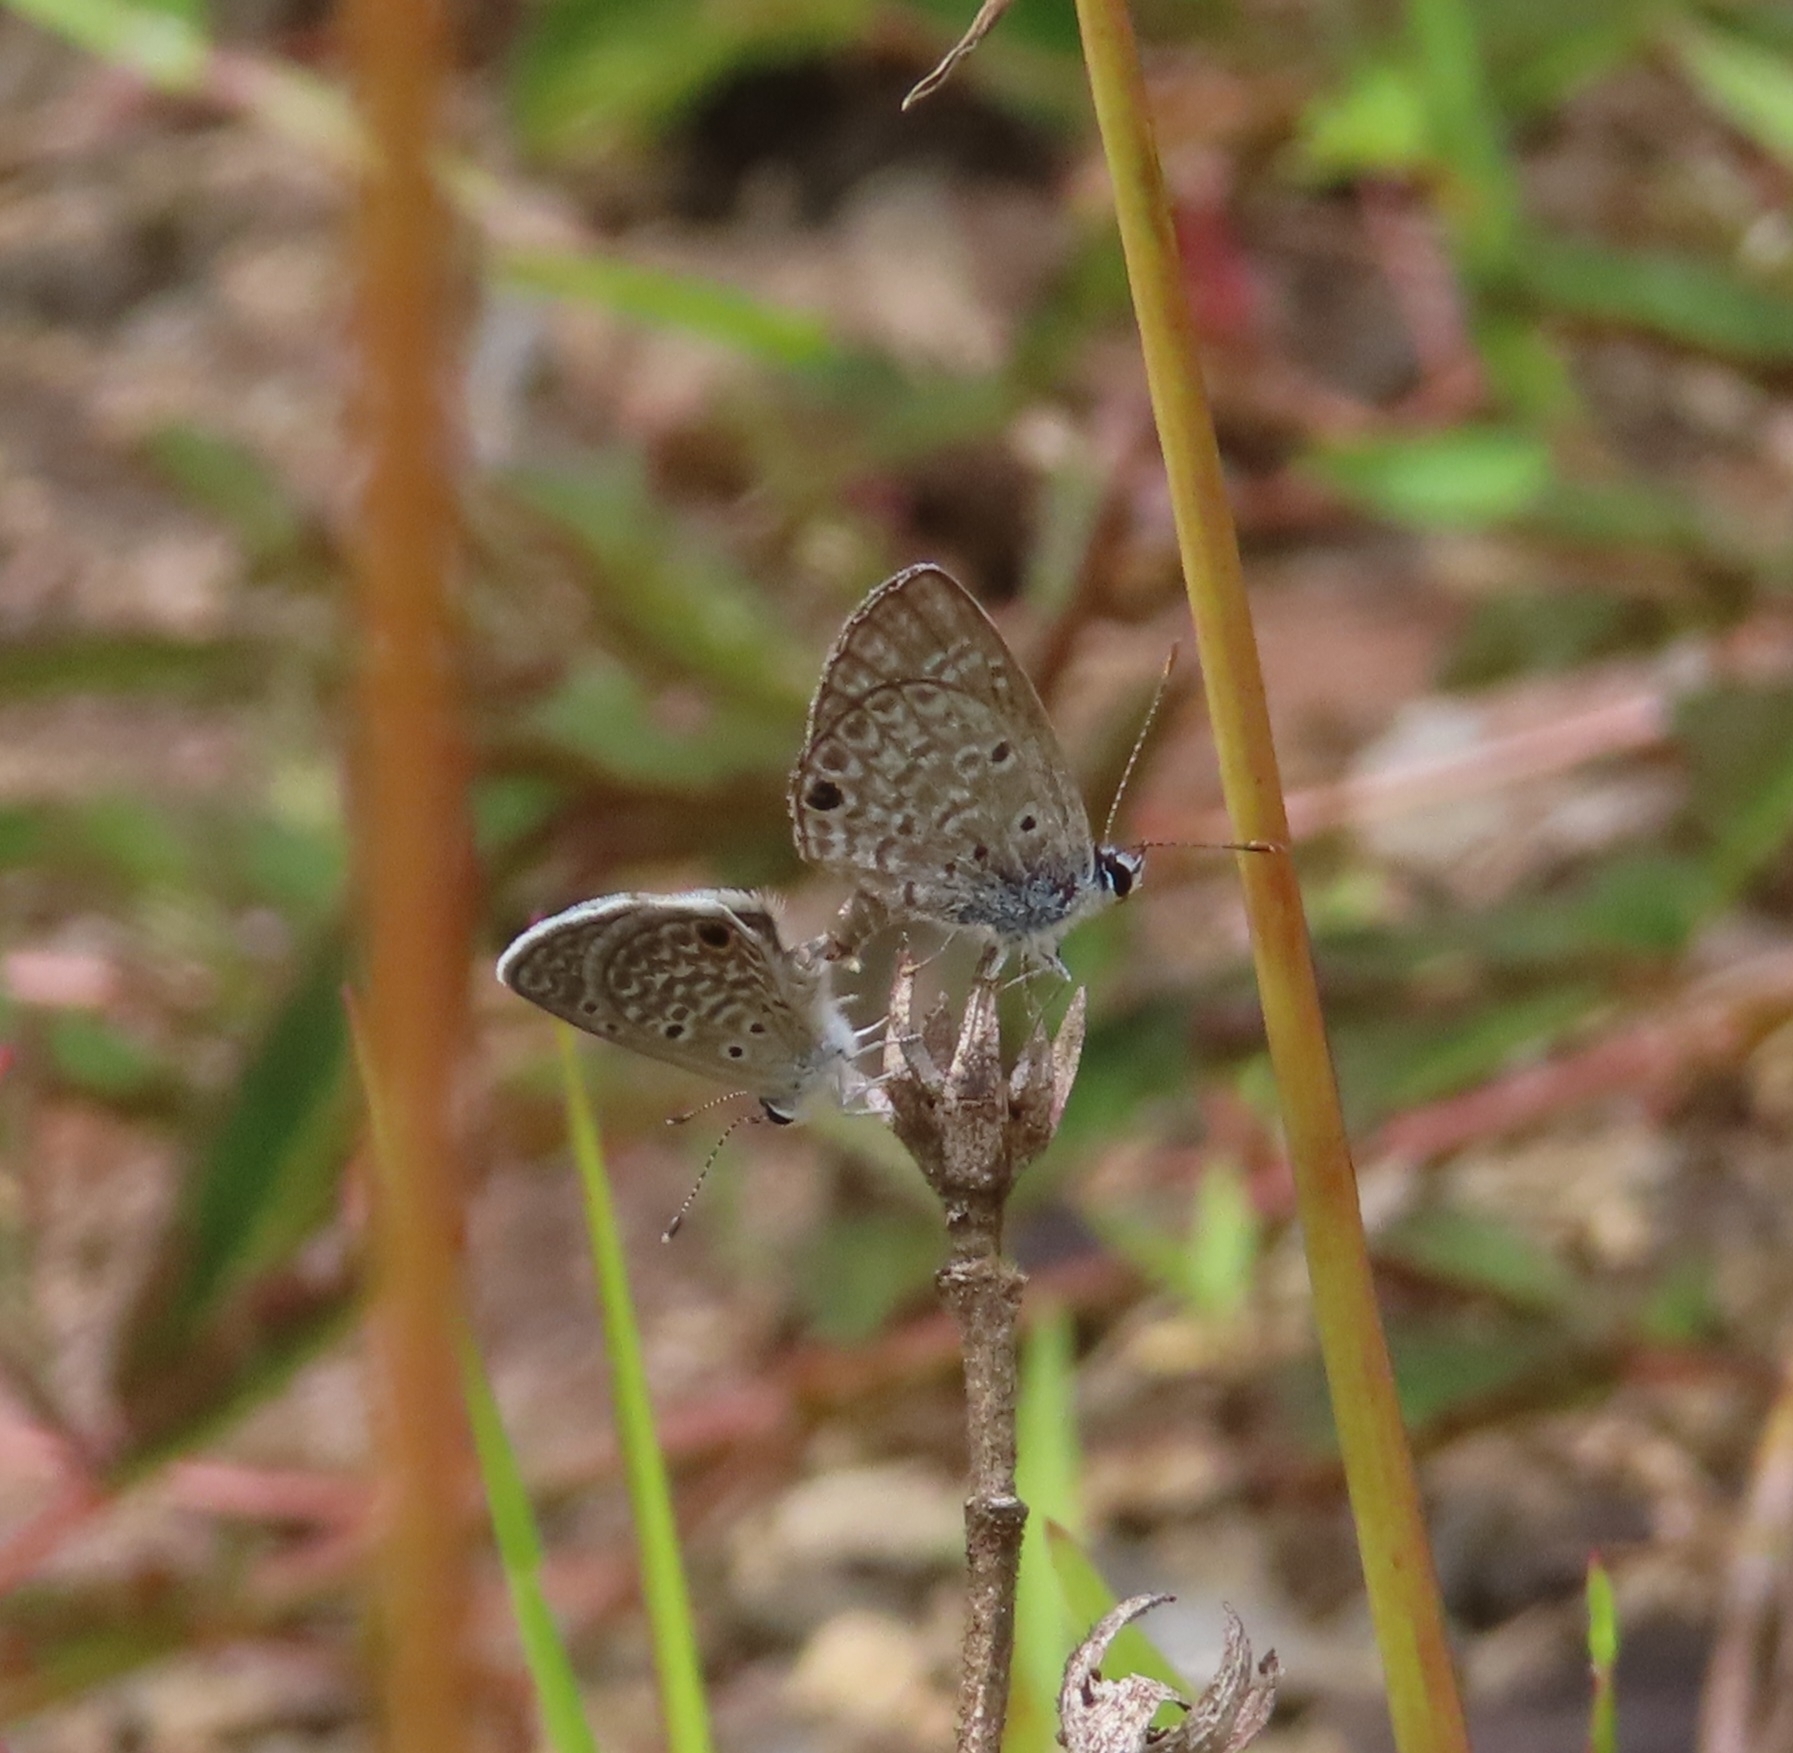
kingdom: Animalia
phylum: Arthropoda
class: Insecta
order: Lepidoptera
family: Lycaenidae
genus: Hemiargus
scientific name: Hemiargus hanno
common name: Common blue
